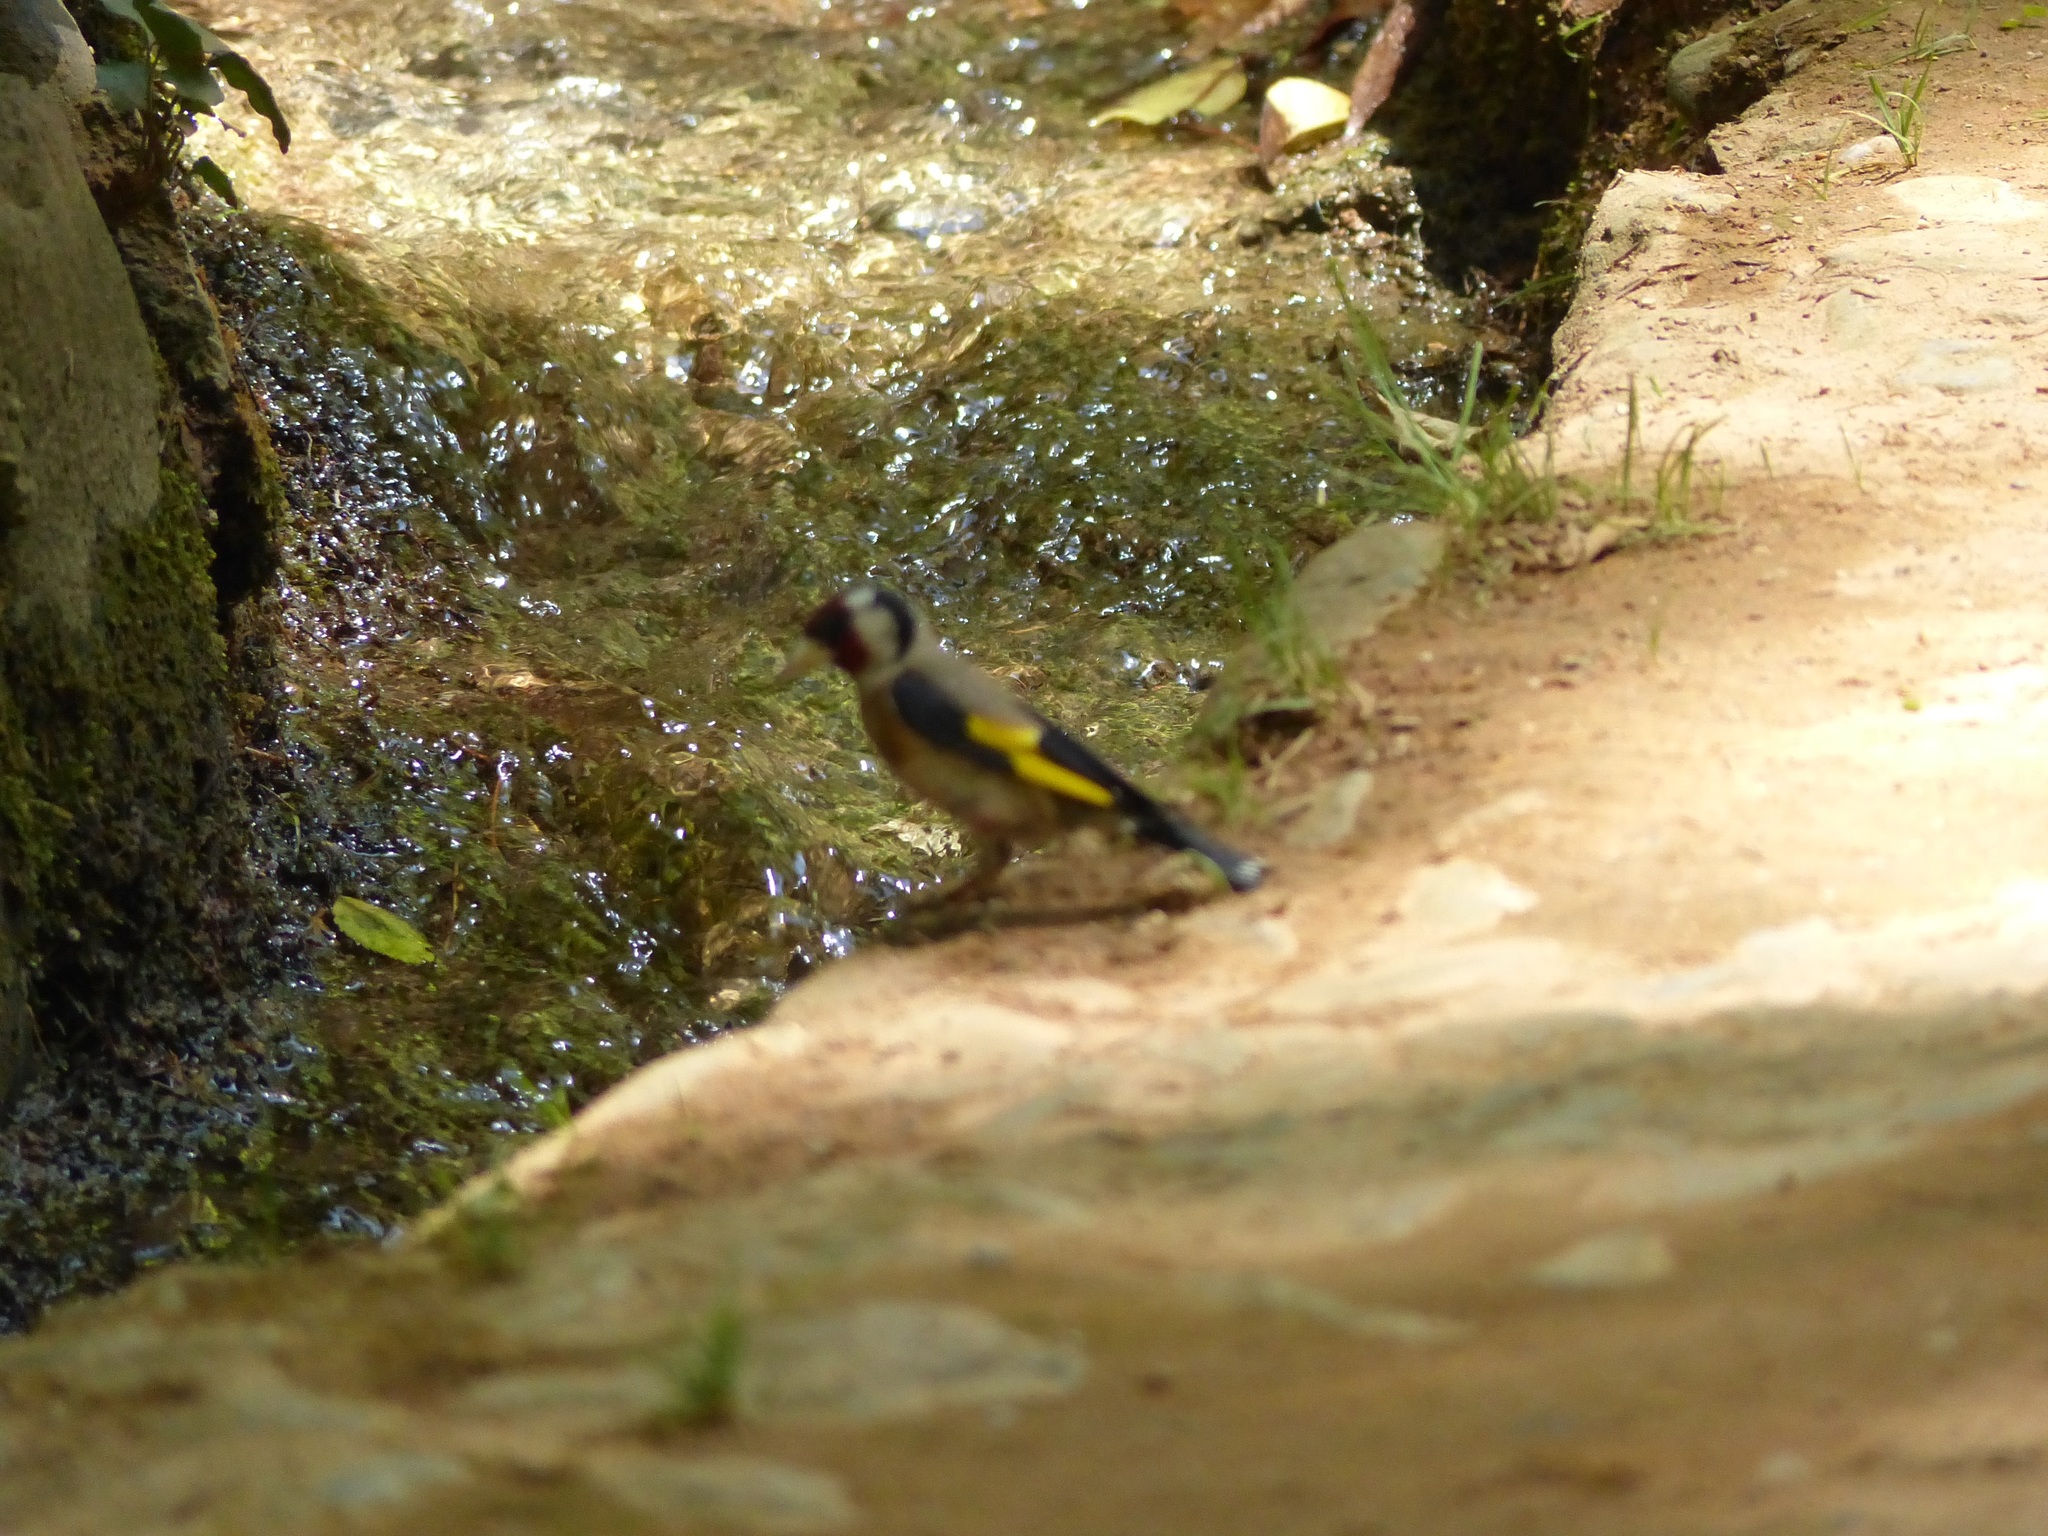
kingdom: Animalia
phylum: Chordata
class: Aves
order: Passeriformes
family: Fringillidae
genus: Carduelis
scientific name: Carduelis carduelis
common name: European goldfinch
